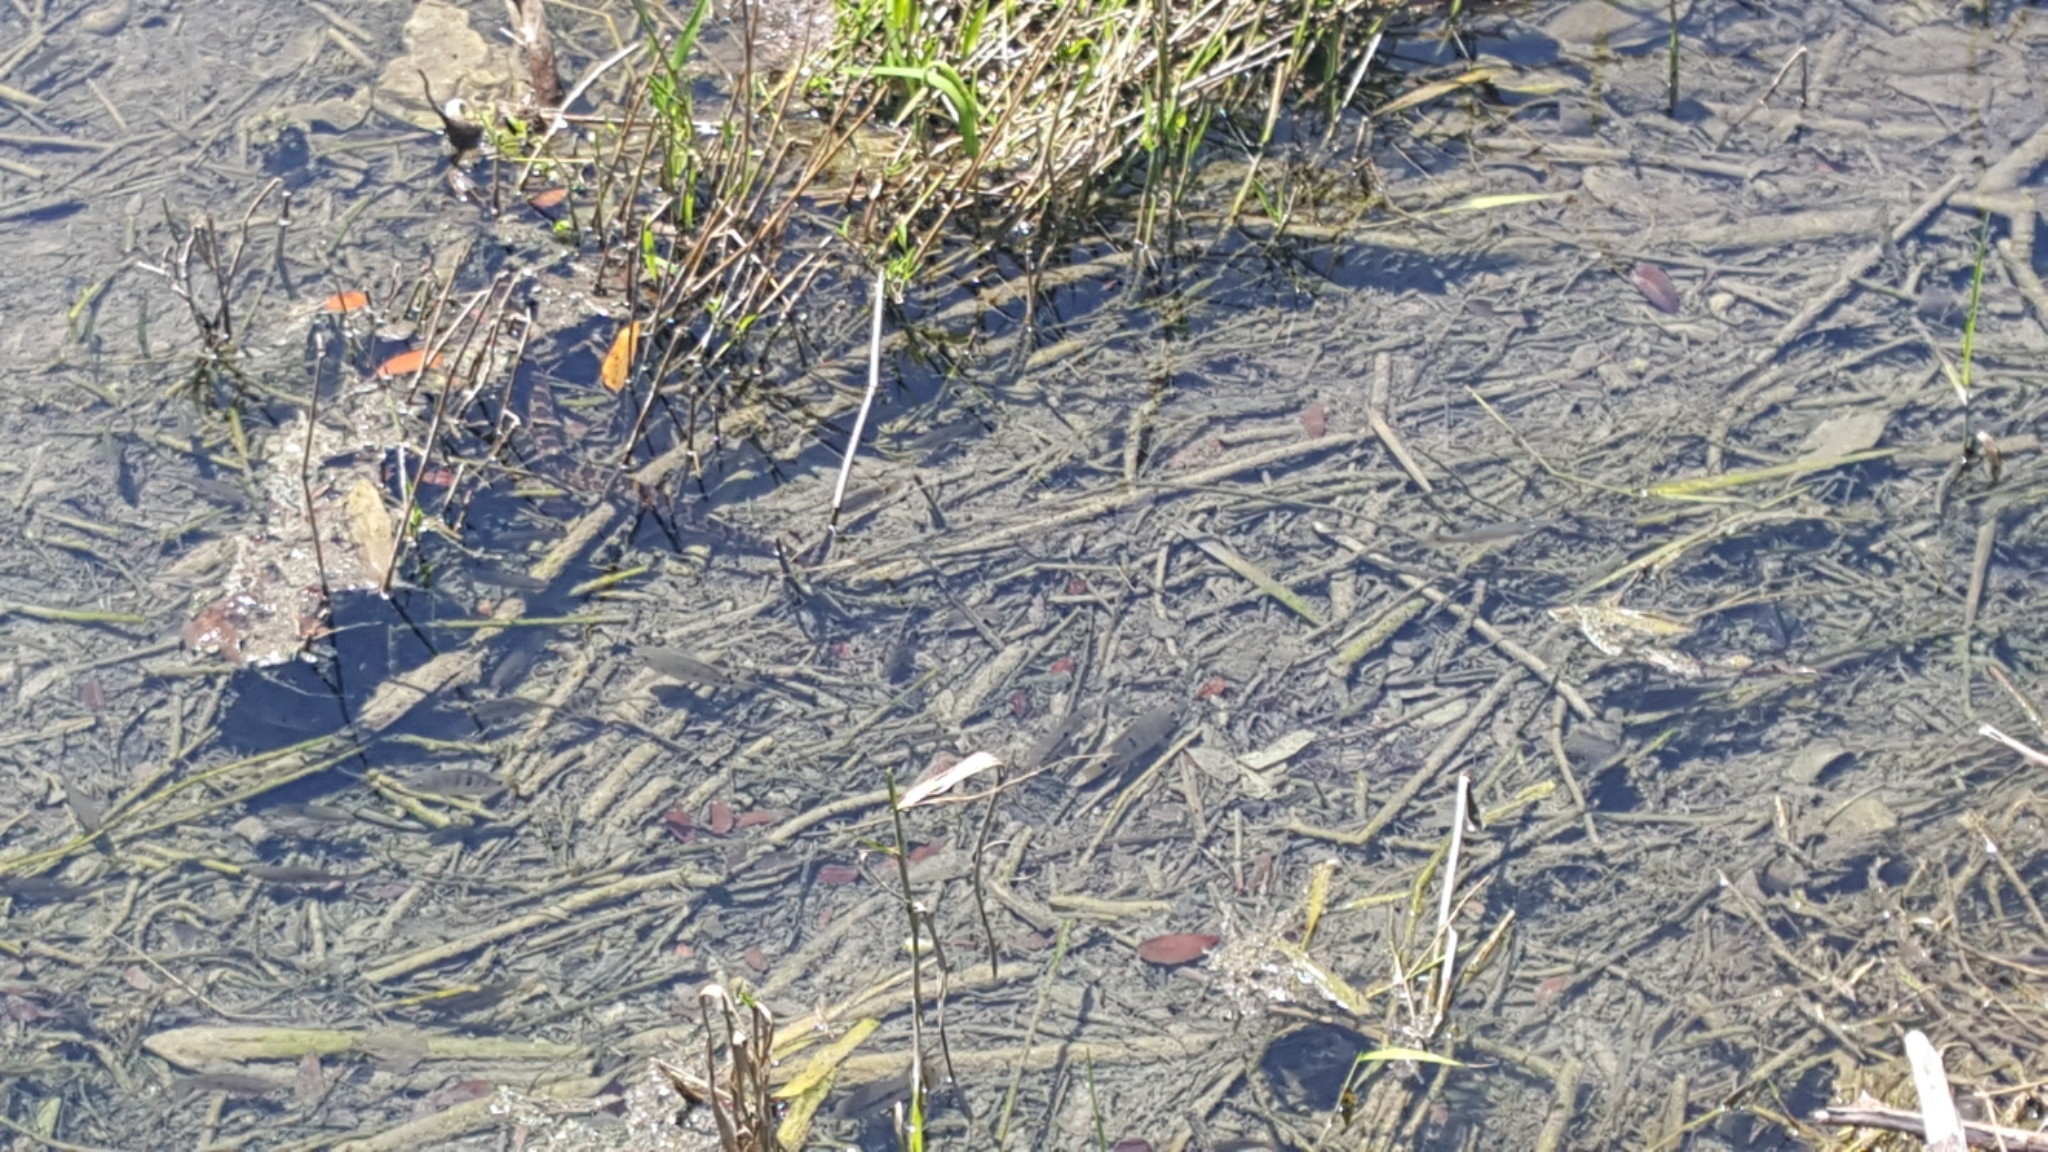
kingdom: Animalia
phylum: Chordata
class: Squamata
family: Colubridae
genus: Nerodia
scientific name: Nerodia taxispilota
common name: Brown water snake
